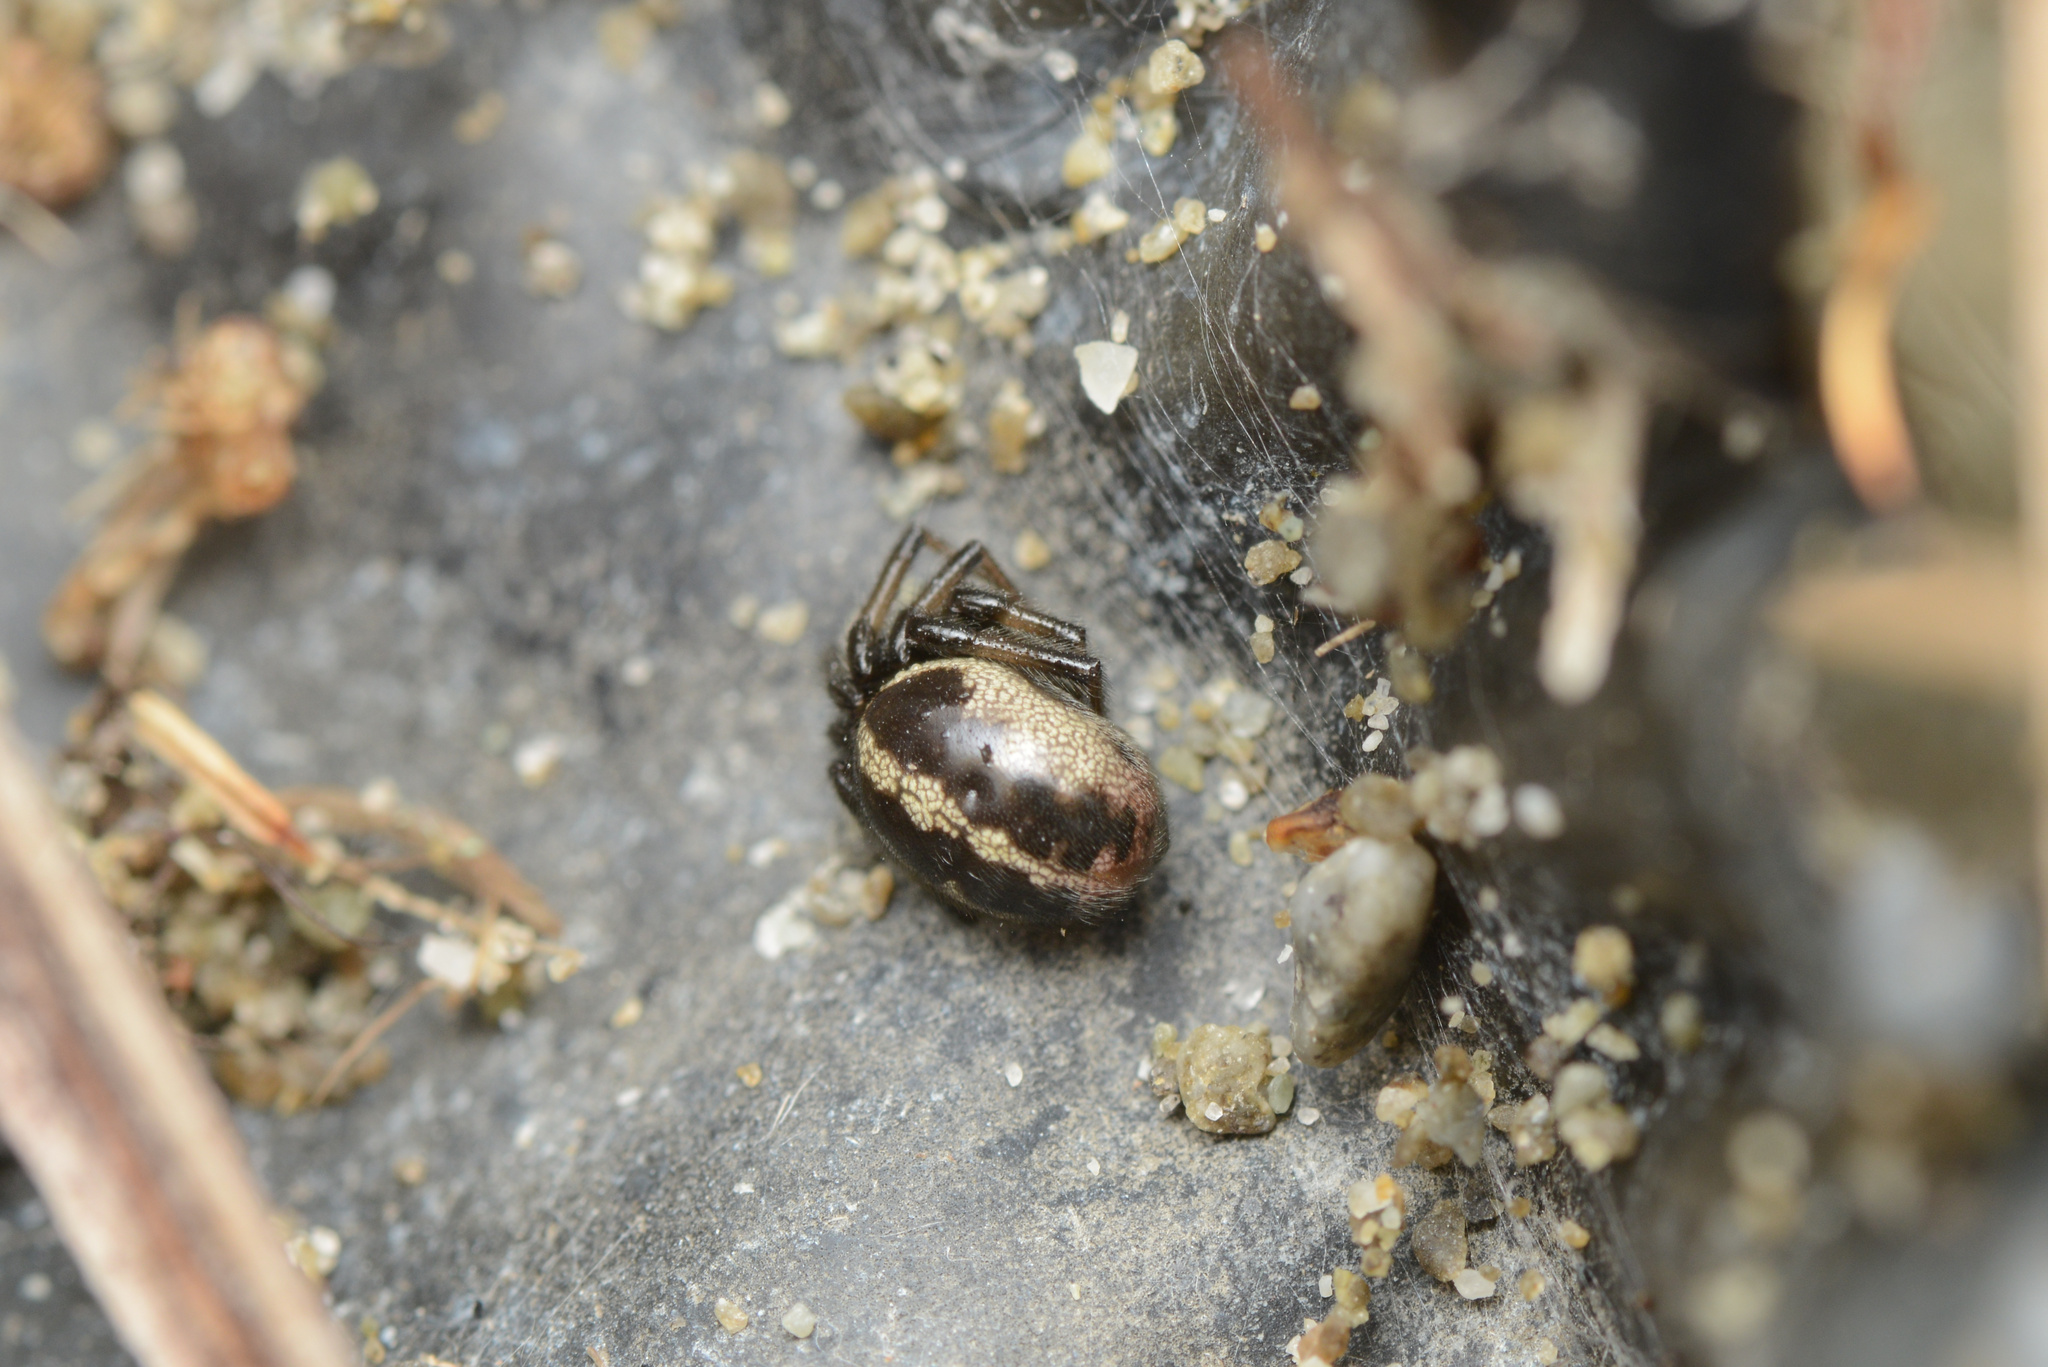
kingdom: Animalia
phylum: Arthropoda
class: Arachnida
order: Araneae
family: Theridiidae
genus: Steatoda
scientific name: Steatoda lepida
